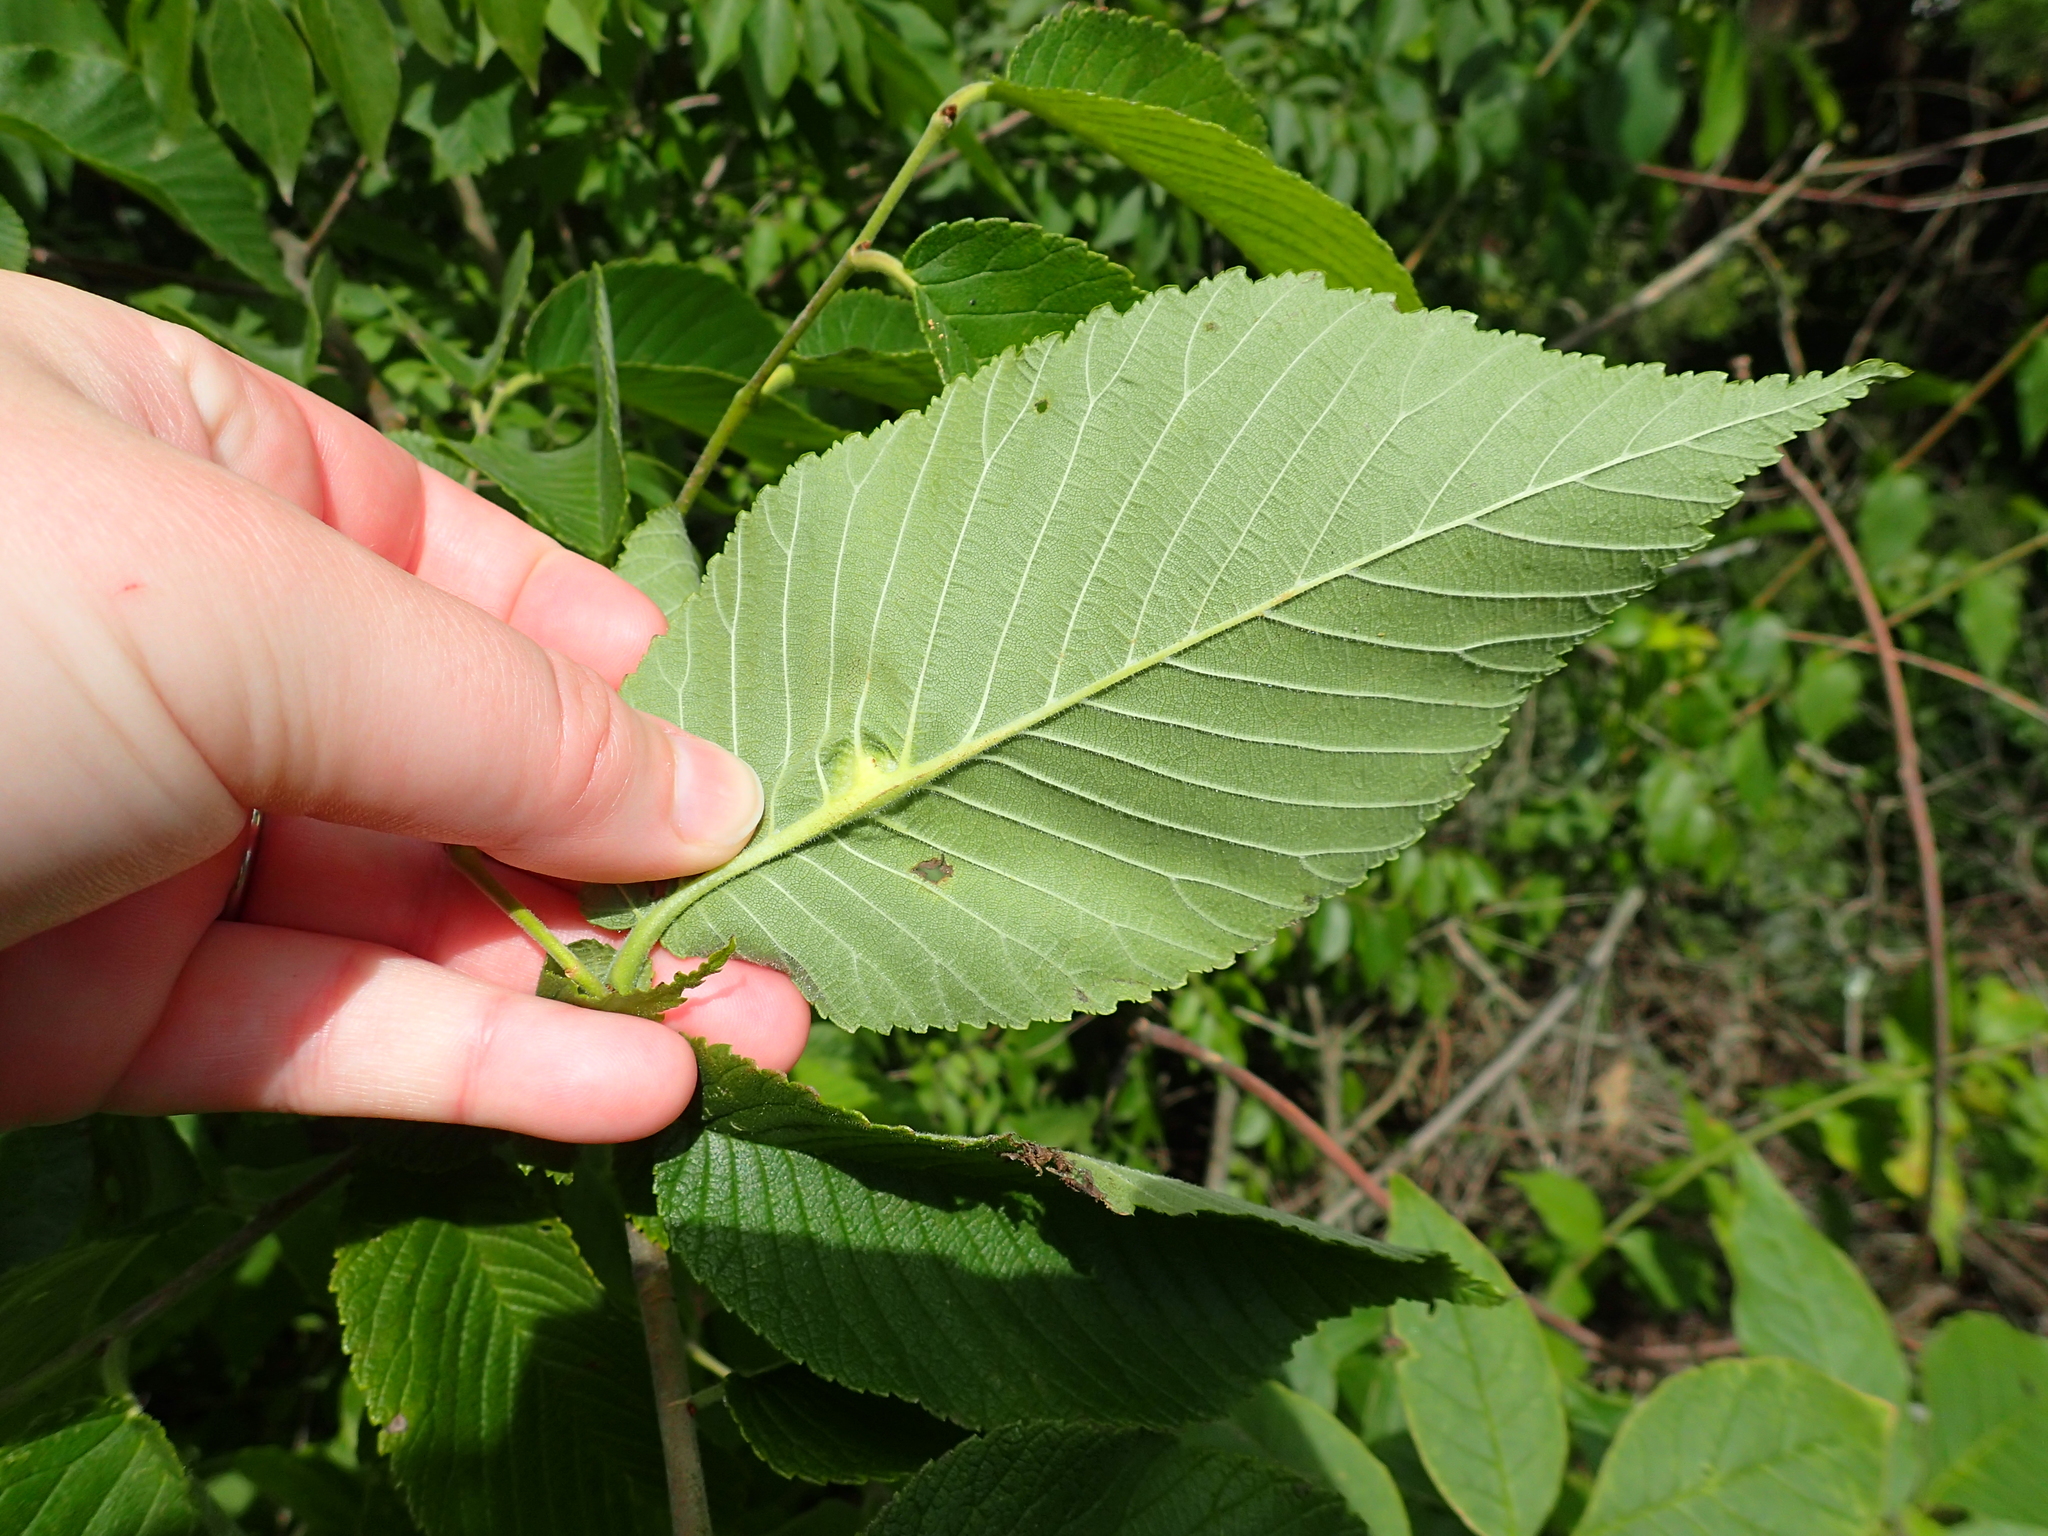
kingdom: Animalia
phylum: Arthropoda
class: Insecta
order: Hemiptera
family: Aphididae
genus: Kaltenbachiella
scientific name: Kaltenbachiella ulmifusa
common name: Elm pouchgall aphid
